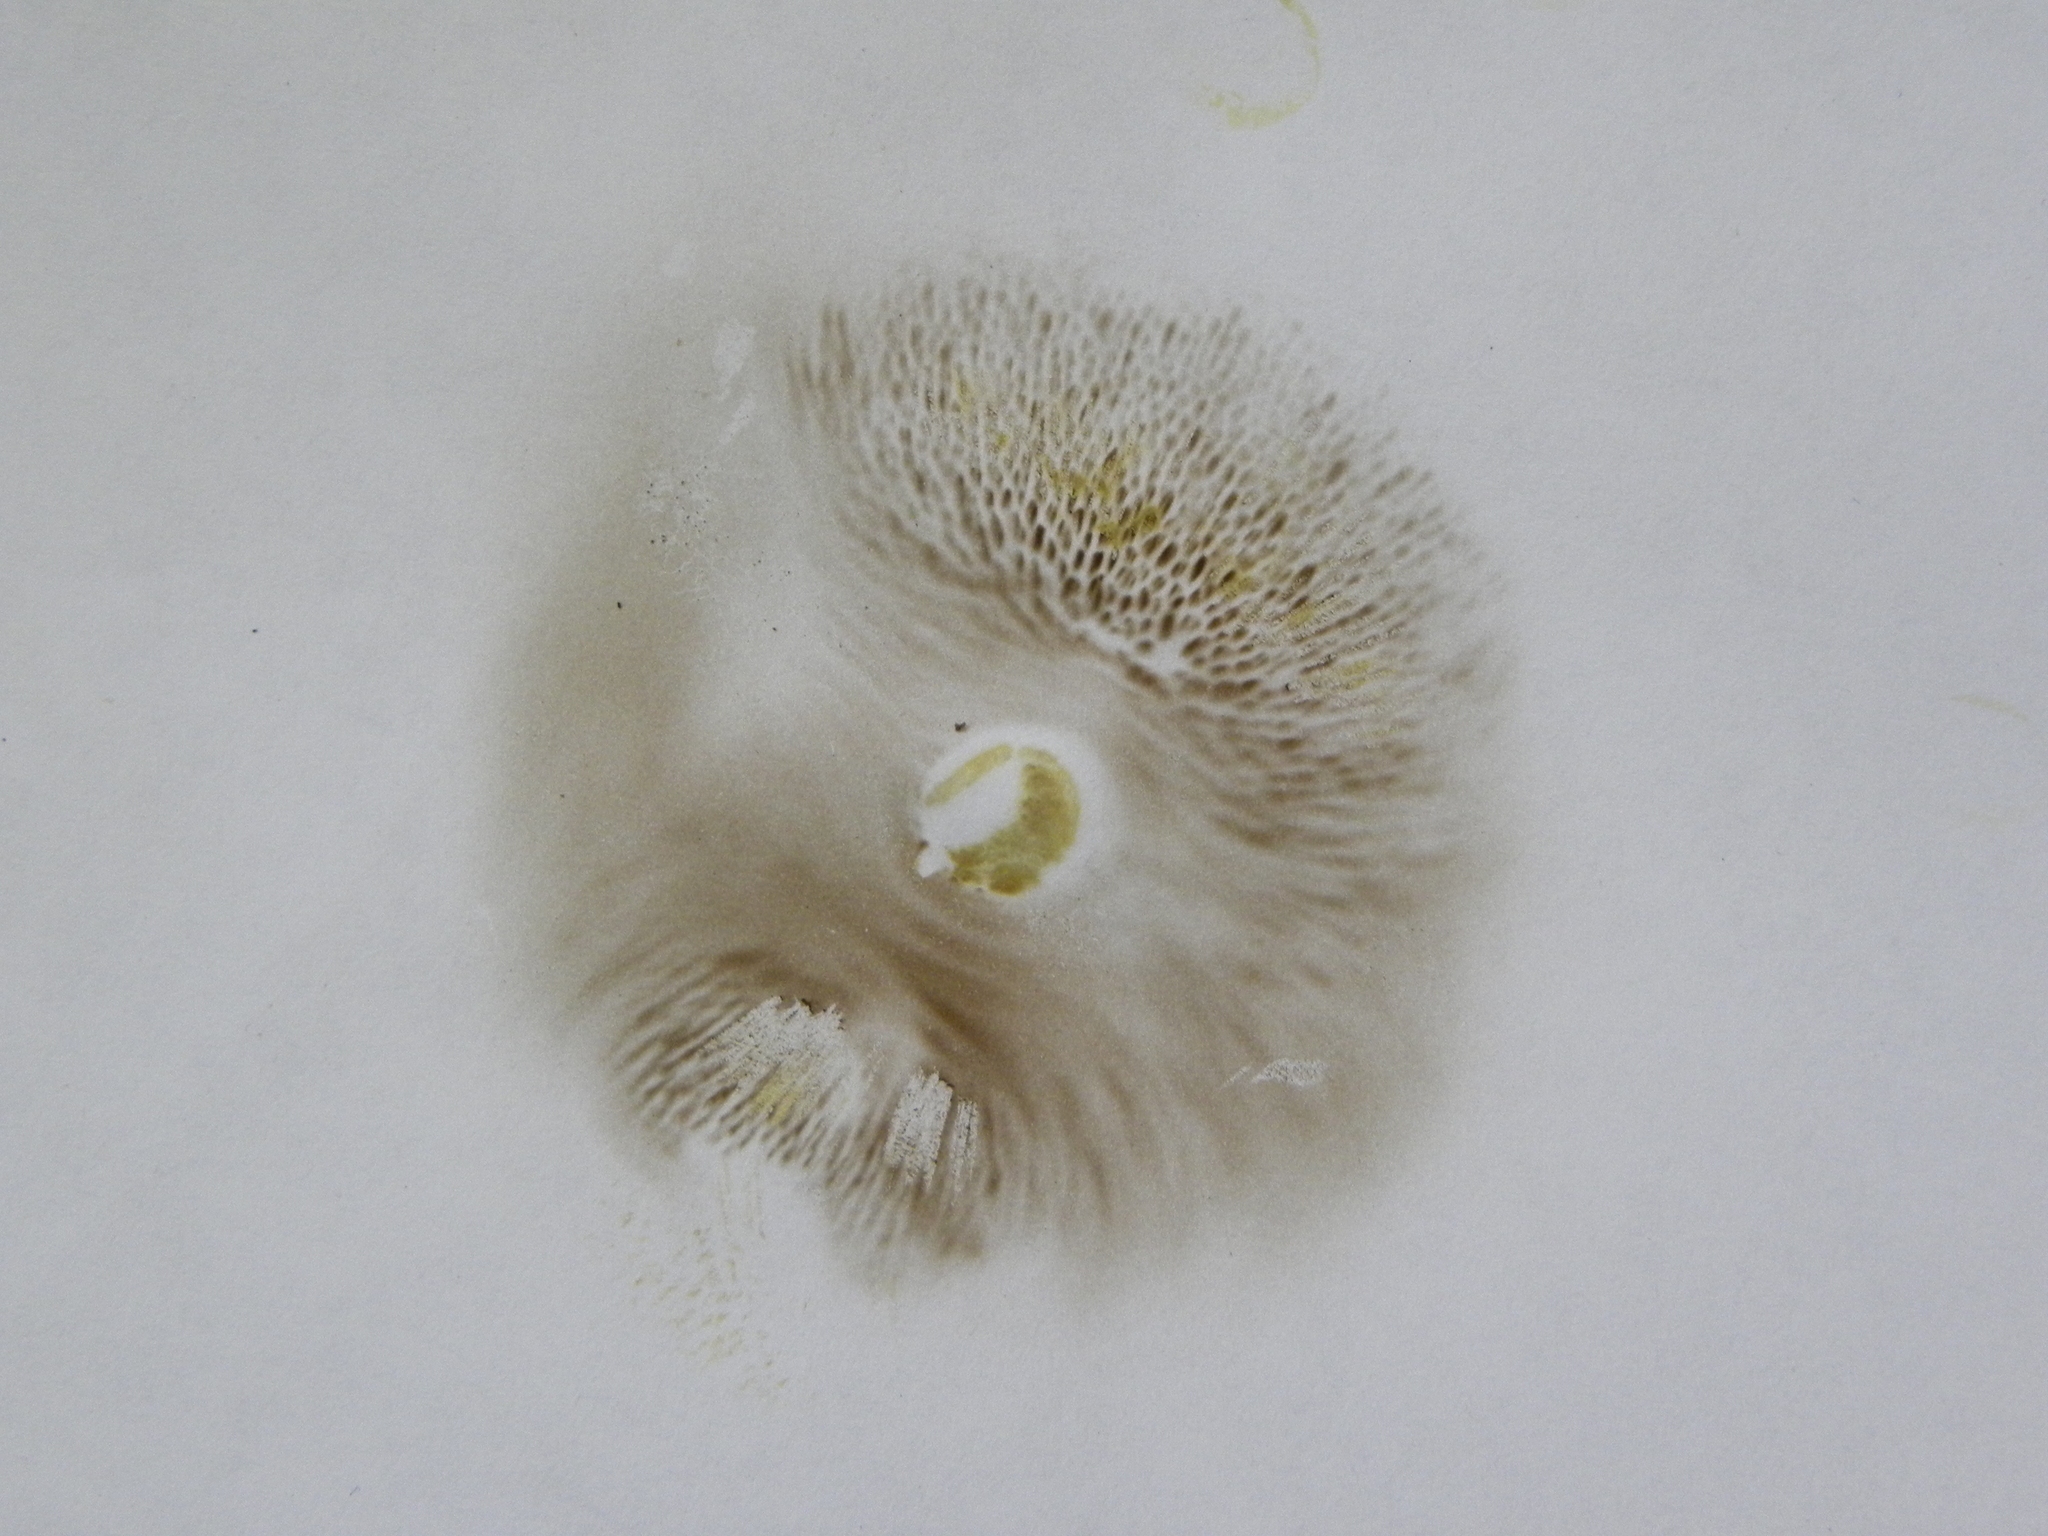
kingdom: Fungi
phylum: Basidiomycota
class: Agaricomycetes
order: Boletales
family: Boletaceae
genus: Hortiboletus
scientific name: Hortiboletus rubellus
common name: Ruby bolete
